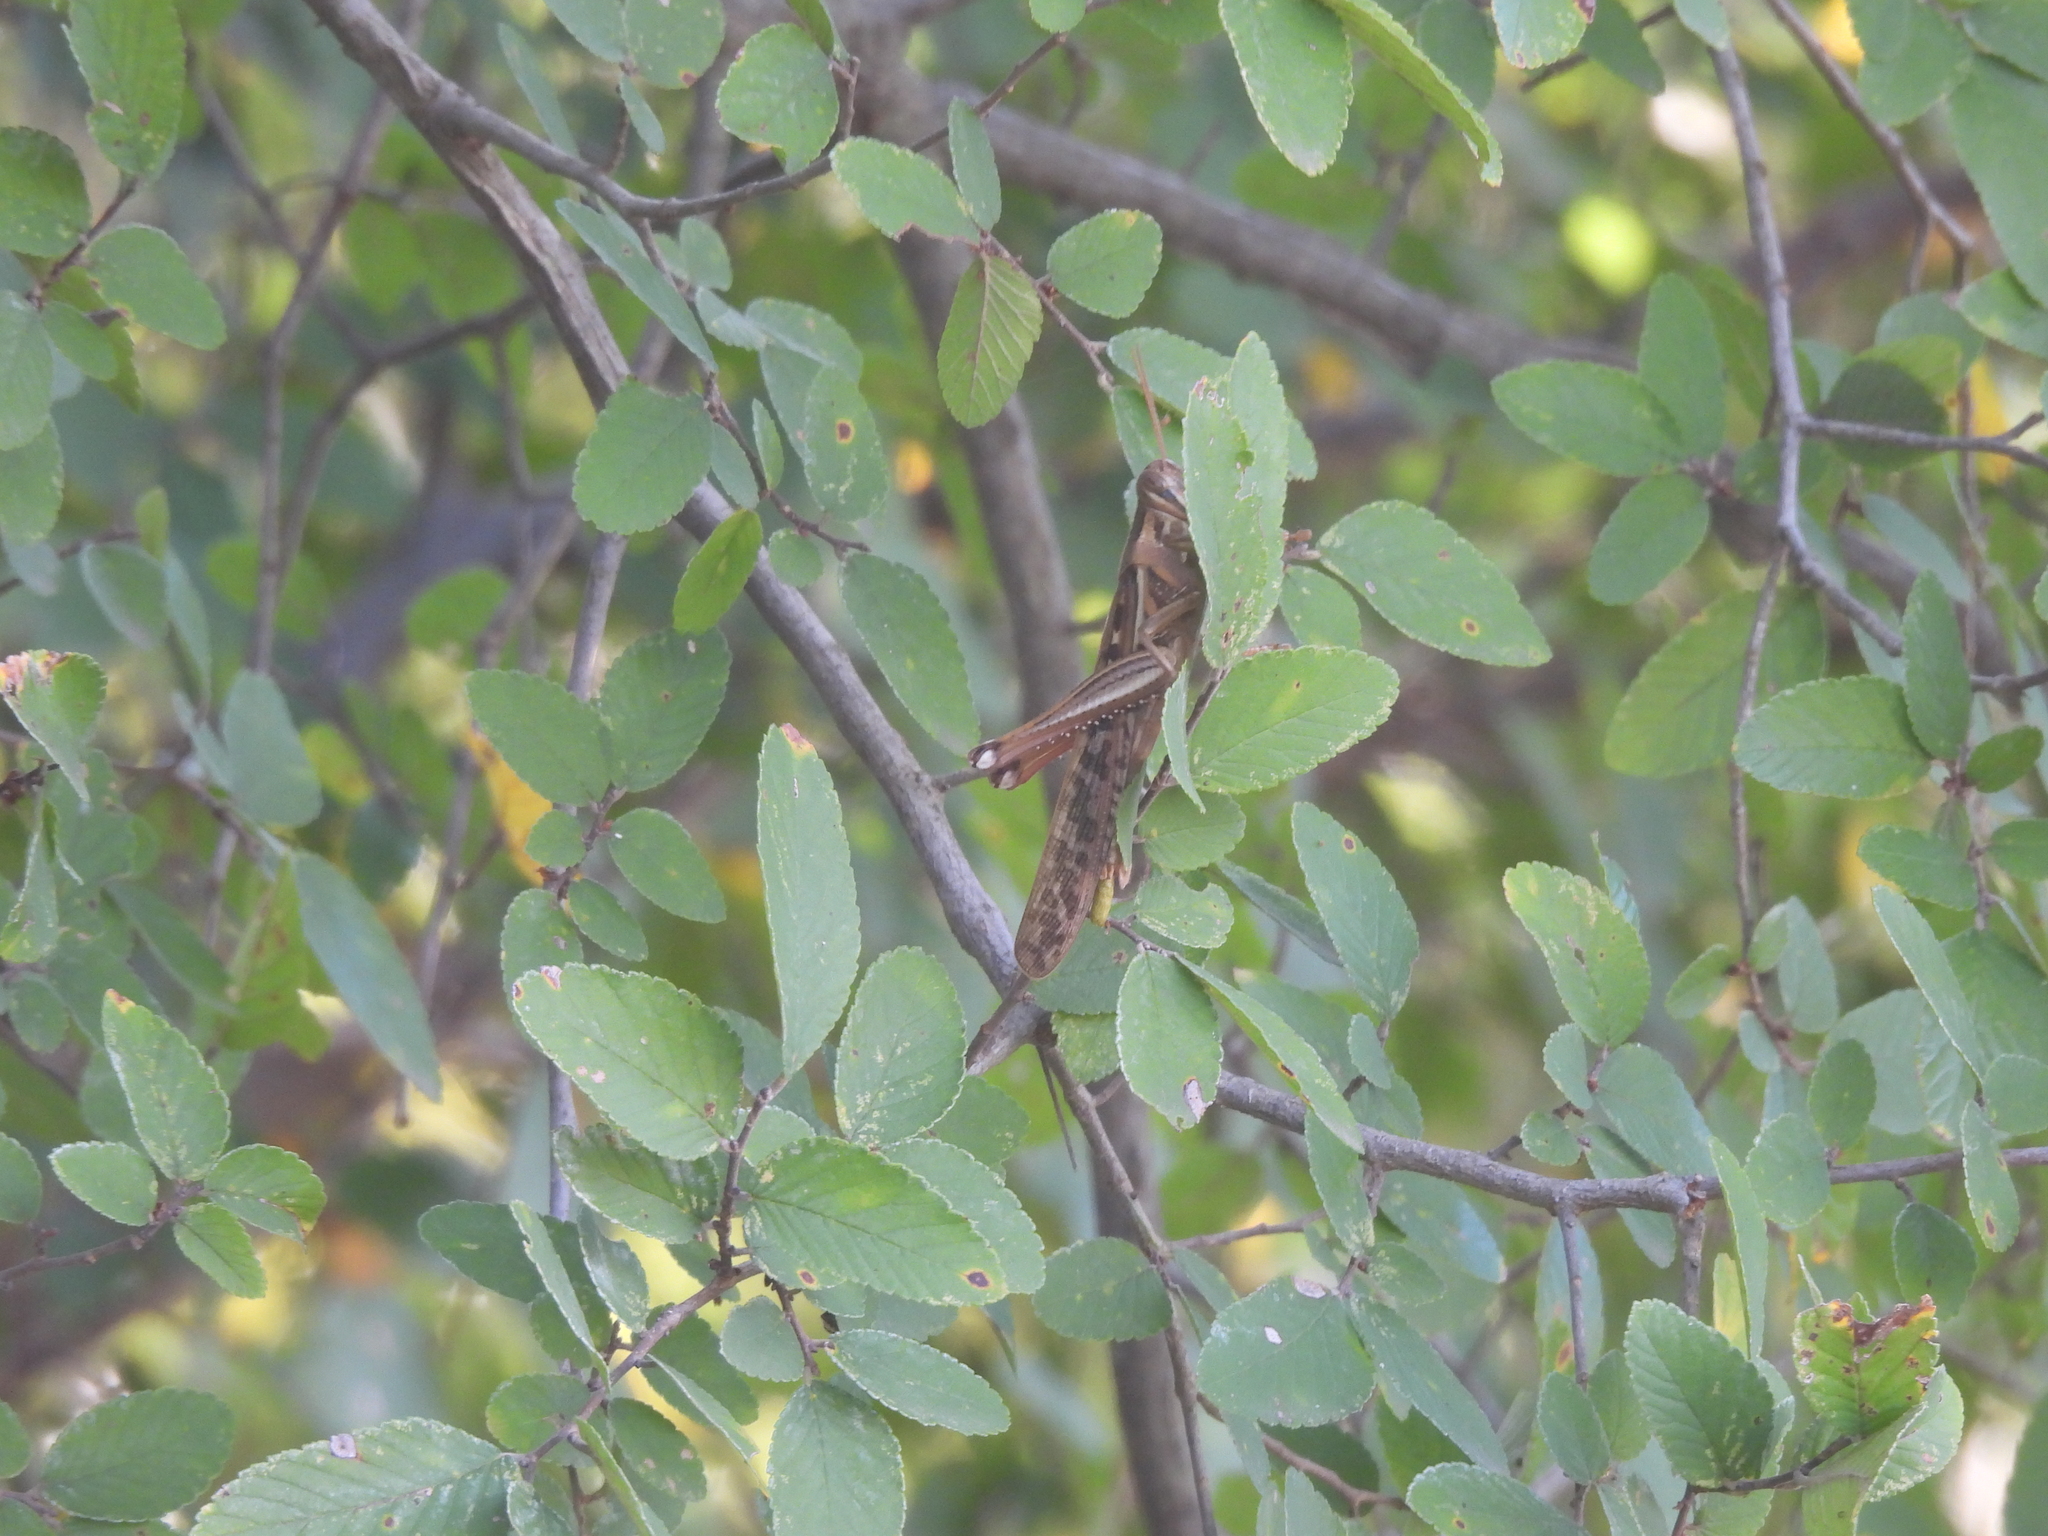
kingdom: Animalia
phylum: Arthropoda
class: Insecta
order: Orthoptera
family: Acrididae
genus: Schistocerca
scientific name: Schistocerca americana
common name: American bird locust
